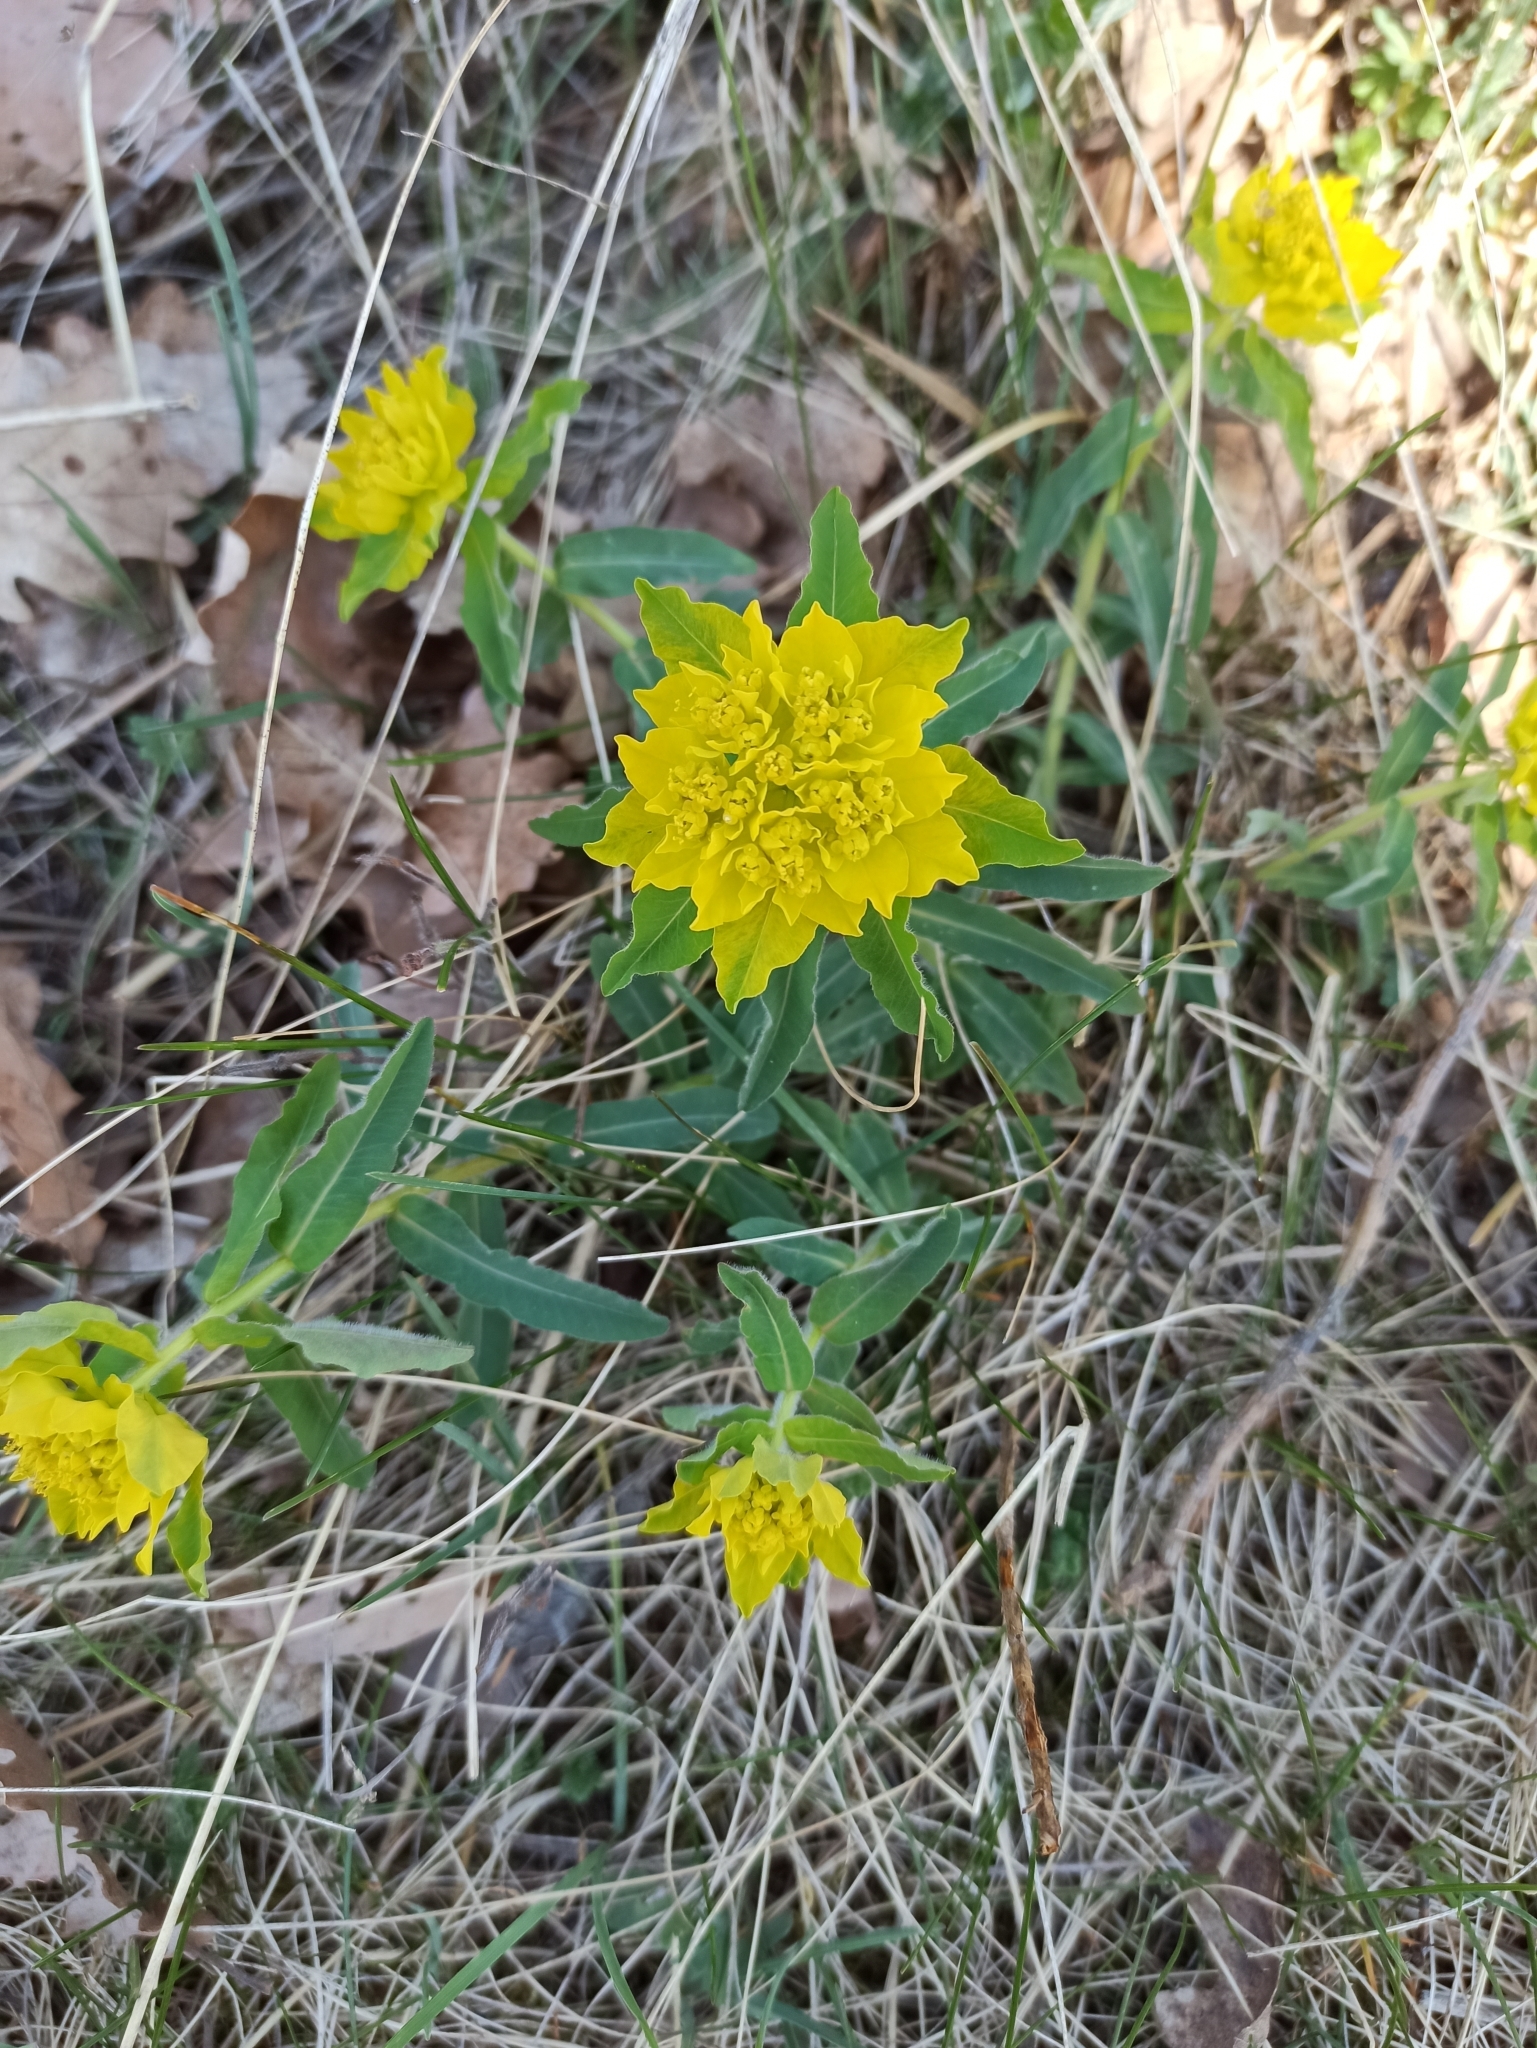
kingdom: Plantae
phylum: Tracheophyta
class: Magnoliopsida
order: Malpighiales
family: Euphorbiaceae
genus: Euphorbia
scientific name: Euphorbia epithymoides
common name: Cushion spurge
